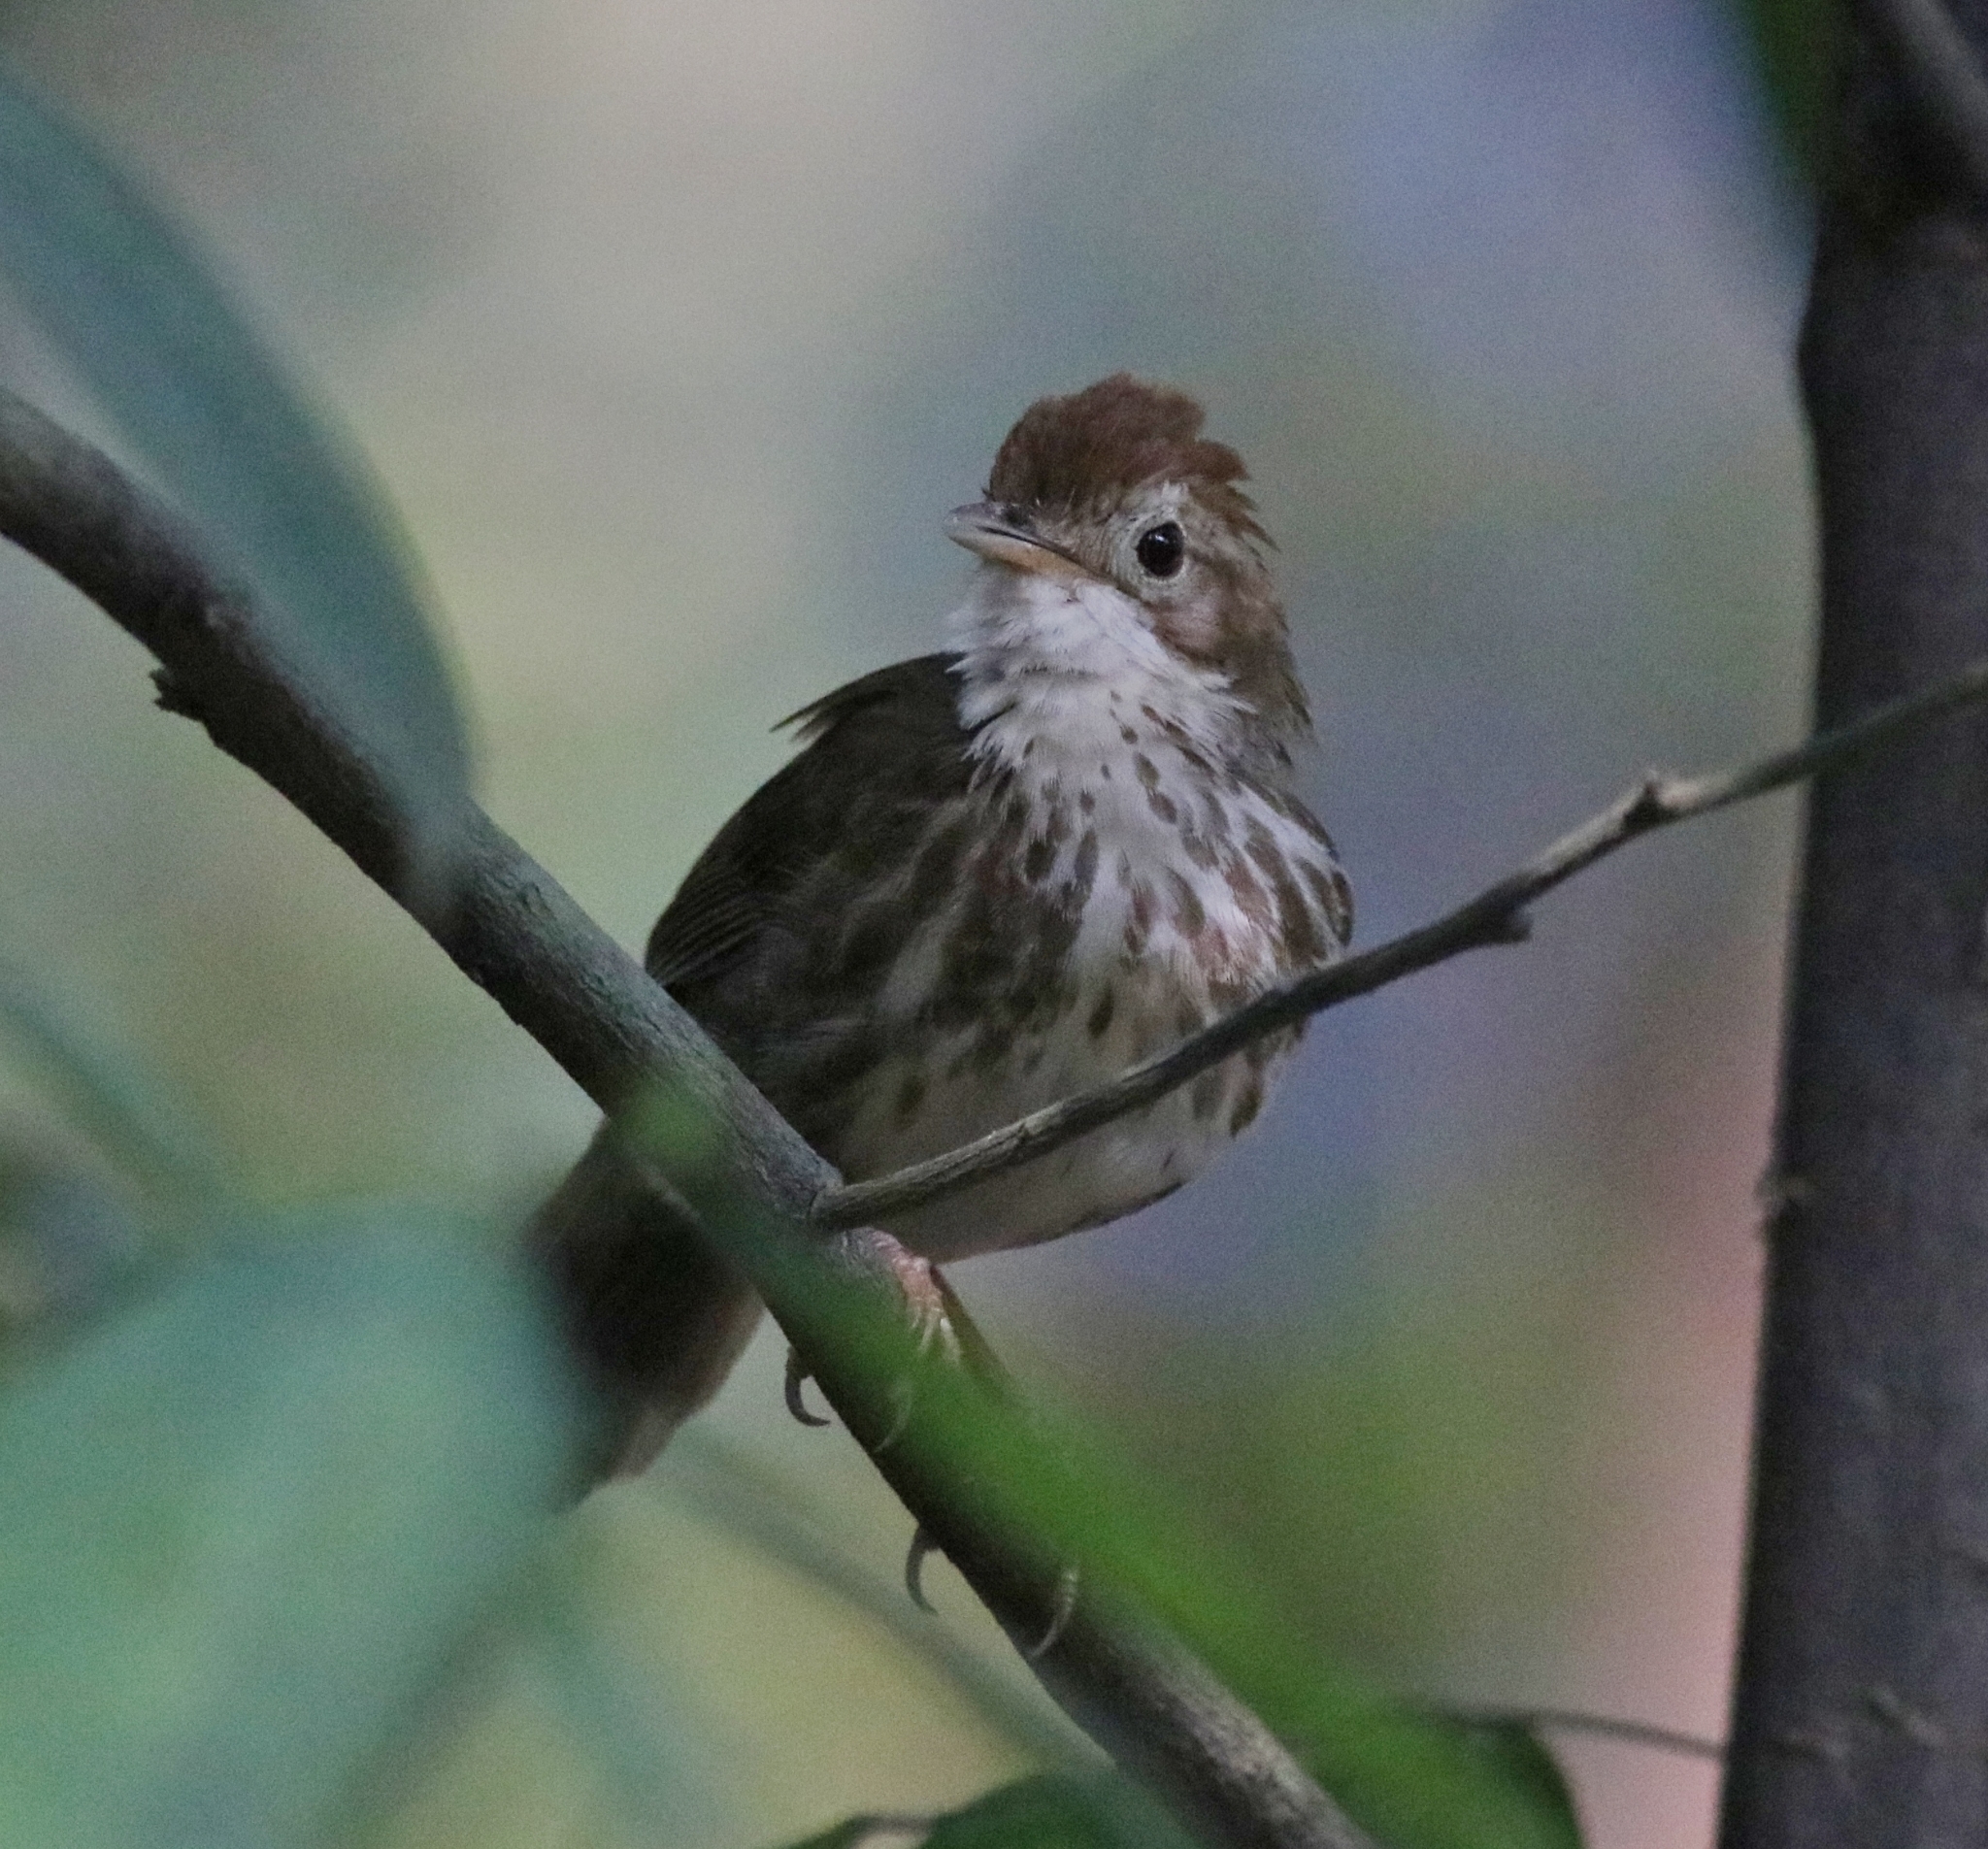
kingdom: Animalia
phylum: Chordata
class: Aves
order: Passeriformes
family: Pellorneidae
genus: Pellorneum
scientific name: Pellorneum ruficeps
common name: Puff-throated babbler
